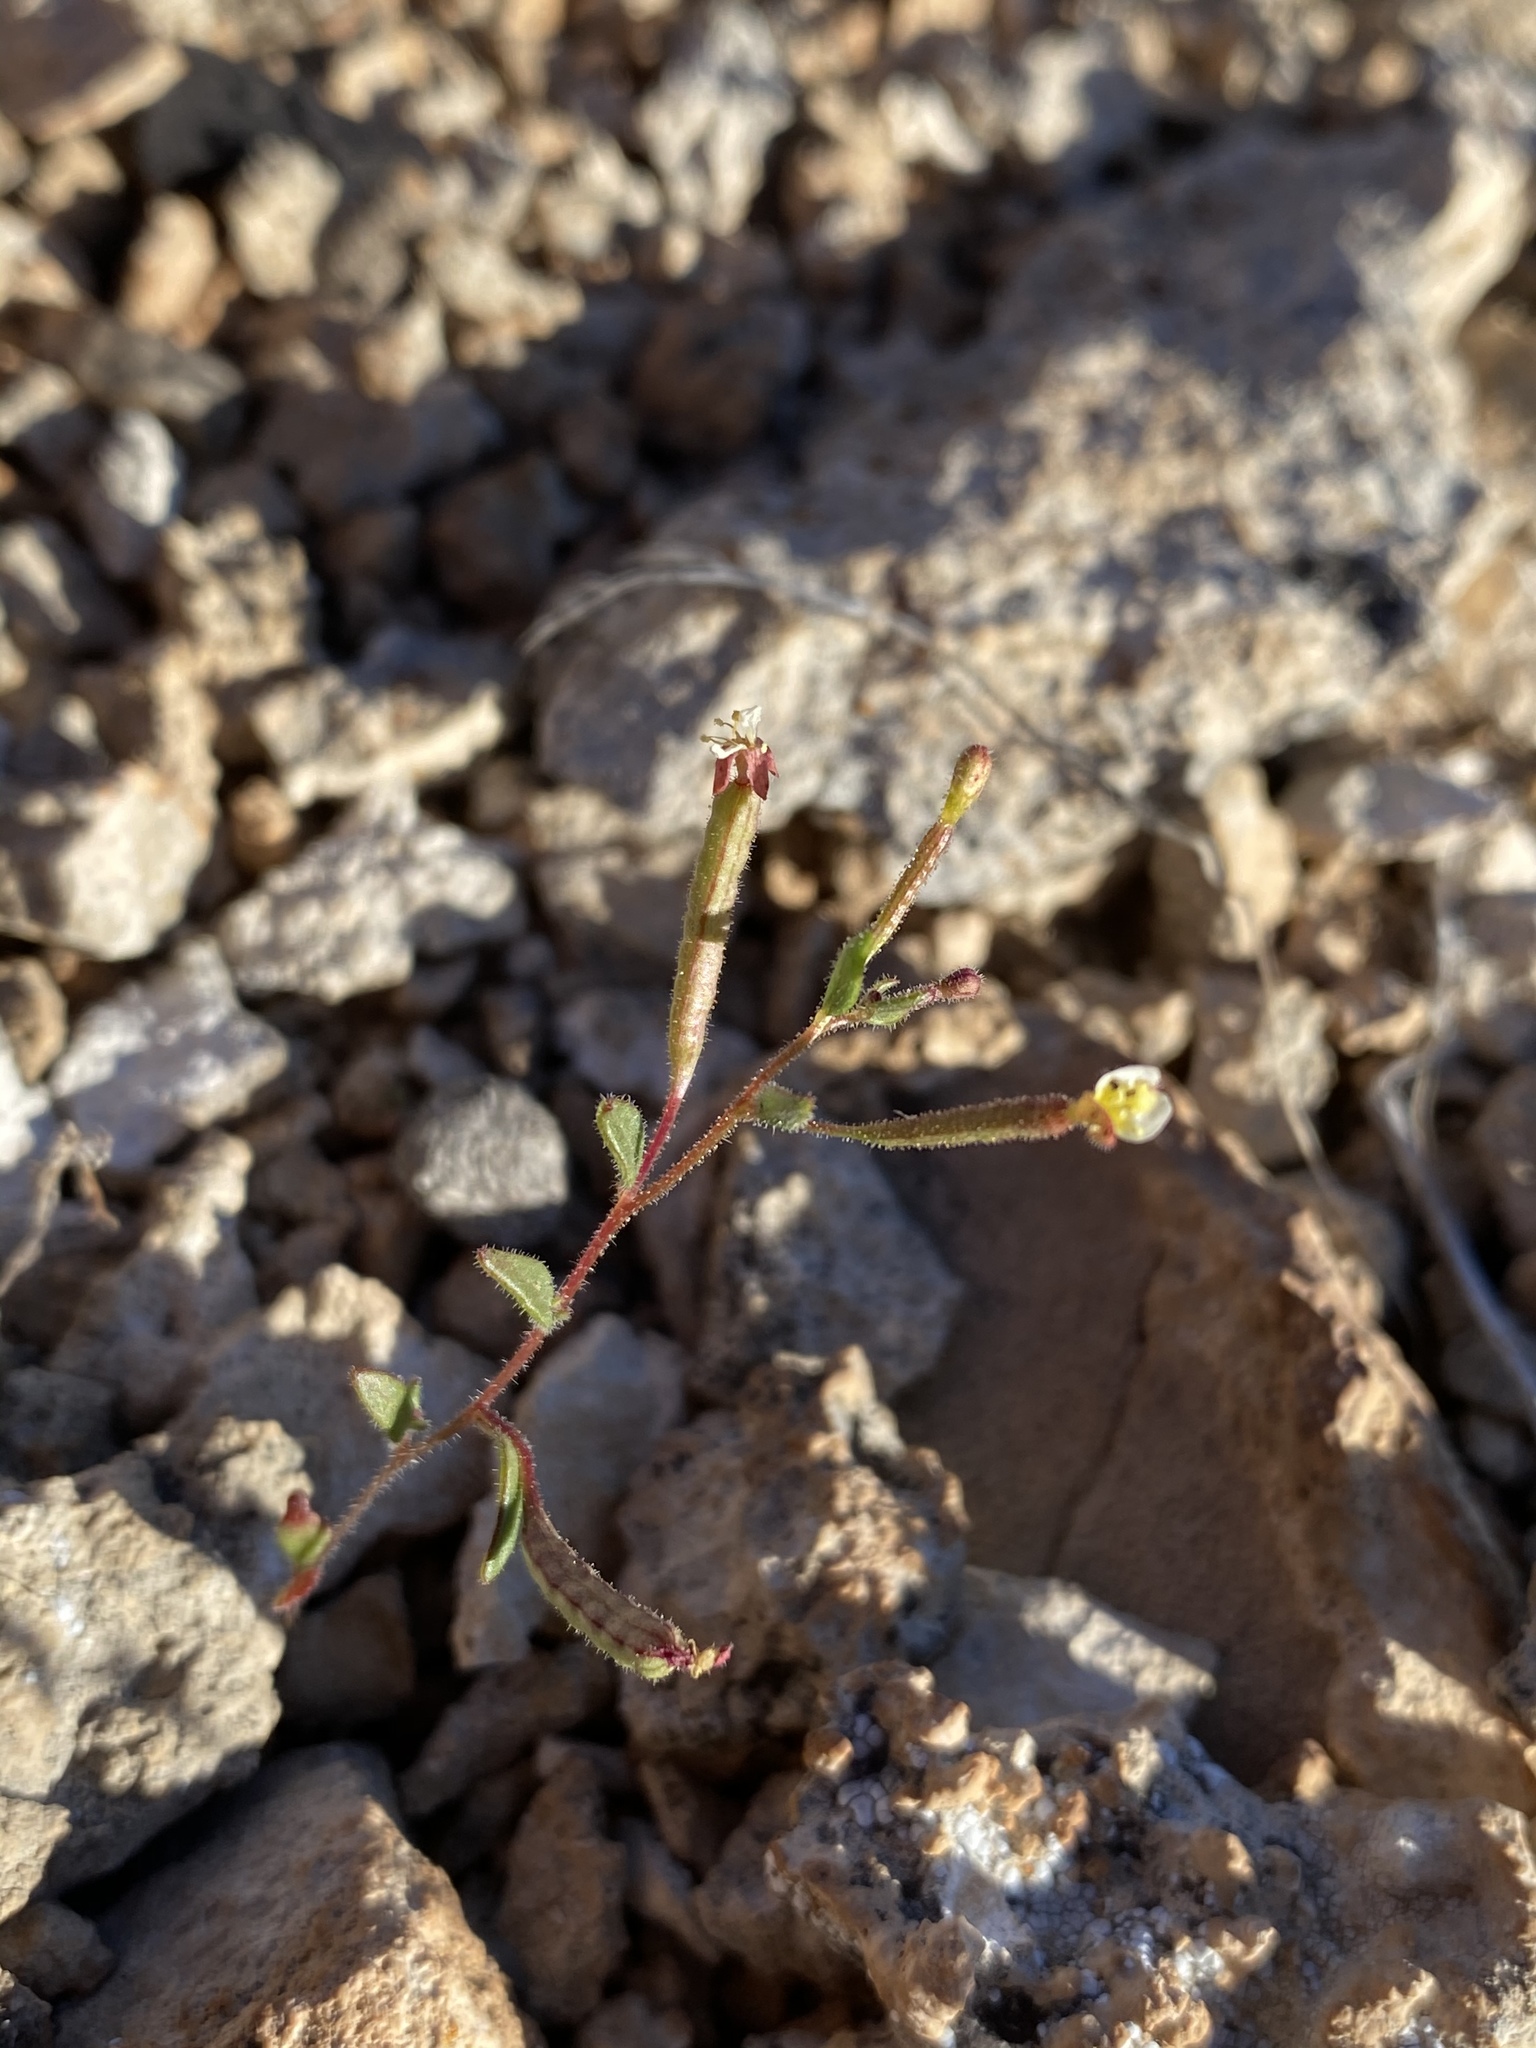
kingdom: Plantae
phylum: Tracheophyta
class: Magnoliopsida
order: Myrtales
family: Onagraceae
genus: Chylismiella
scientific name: Chylismiella pterosperma
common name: Wingfruit suncup
